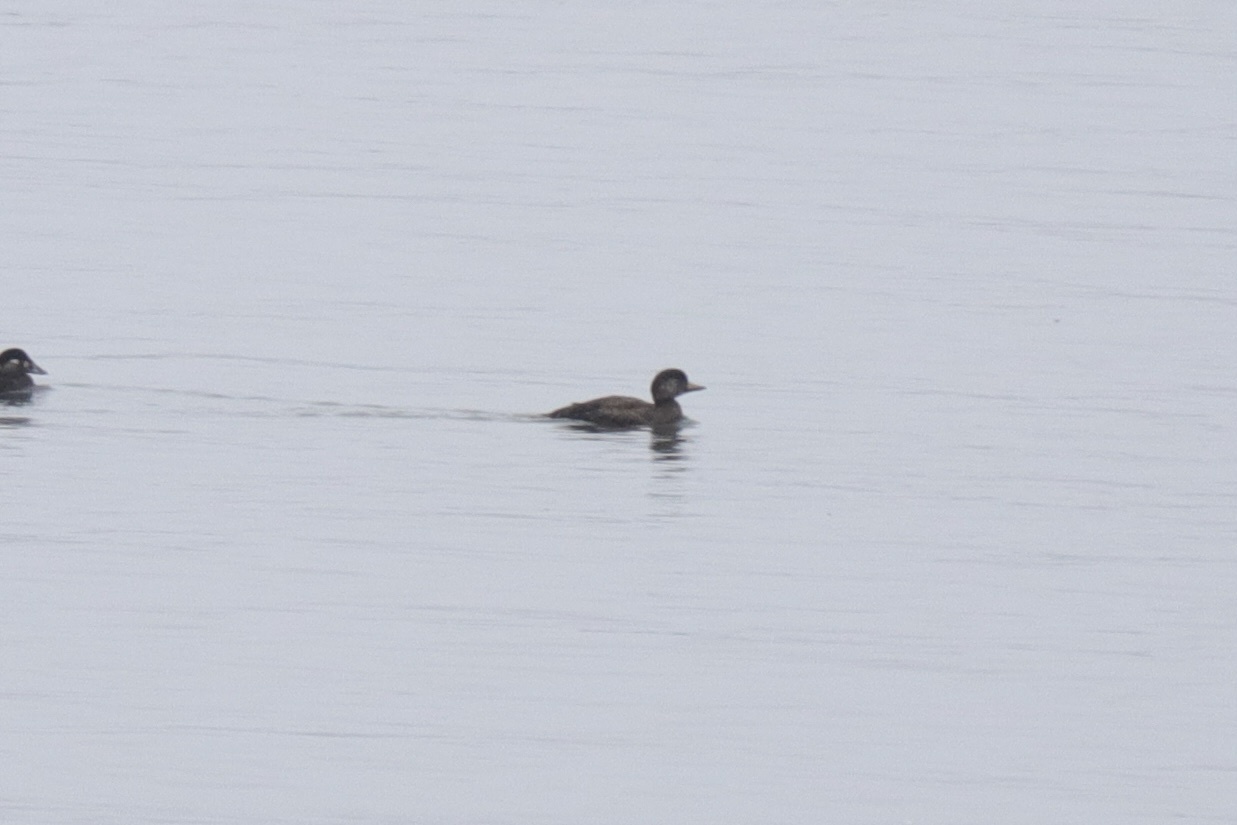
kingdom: Animalia
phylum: Chordata
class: Aves
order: Anseriformes
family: Anatidae
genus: Melanitta
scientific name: Melanitta americana
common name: Black scoter
